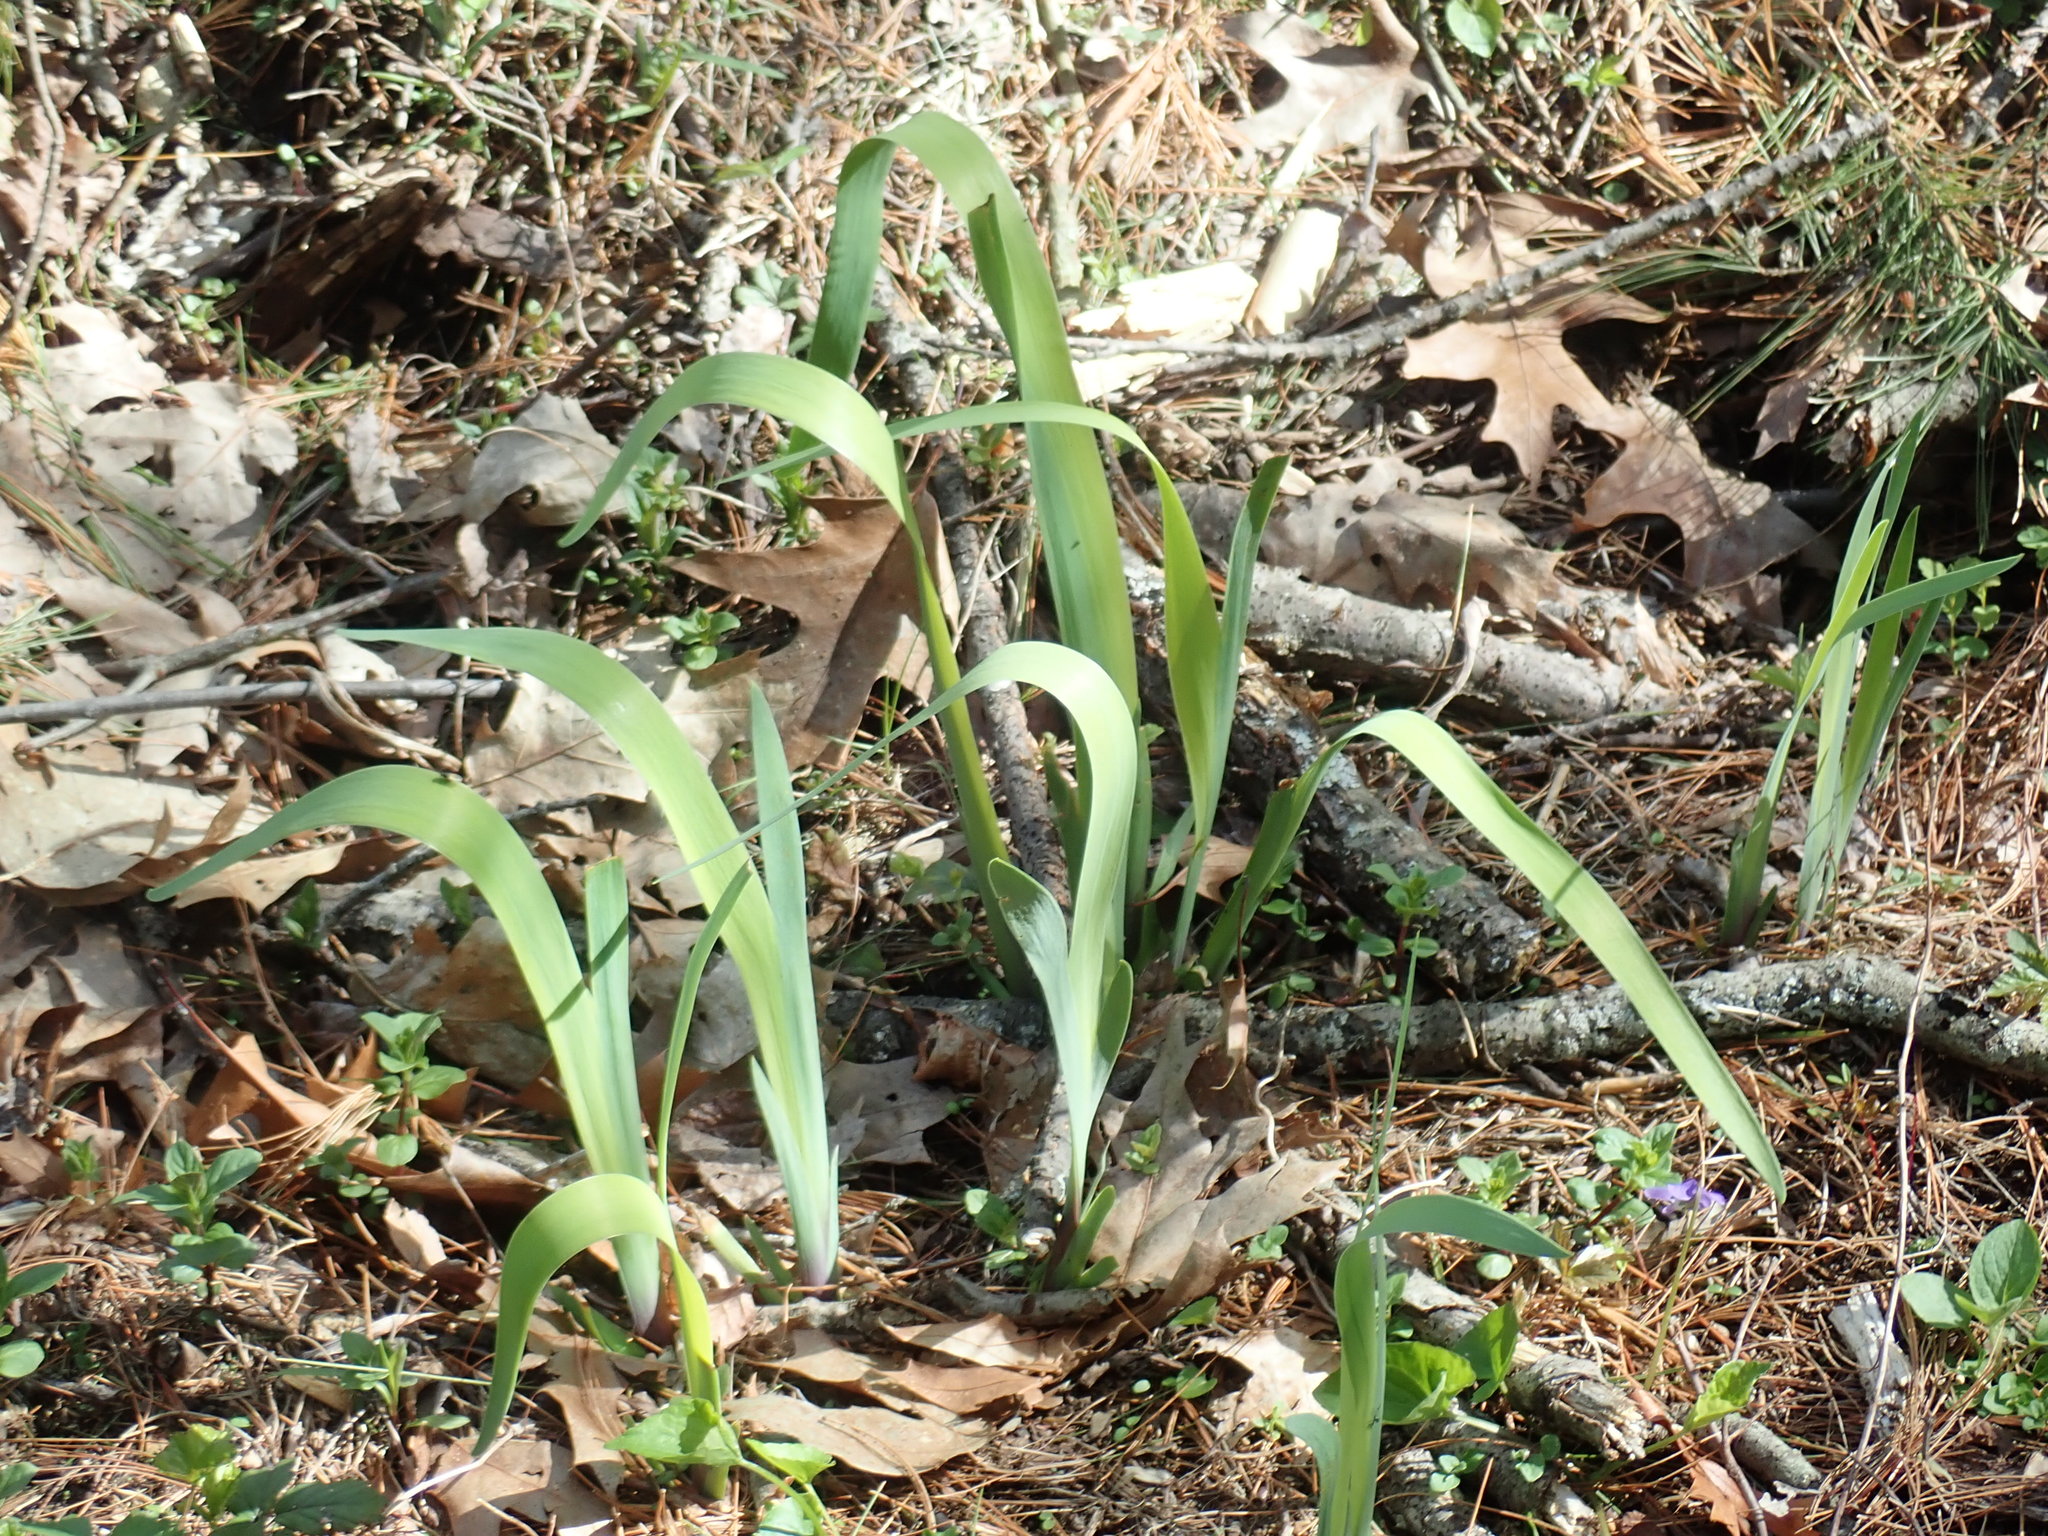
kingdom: Plantae
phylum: Tracheophyta
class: Liliopsida
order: Asparagales
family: Iridaceae
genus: Iris
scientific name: Iris
